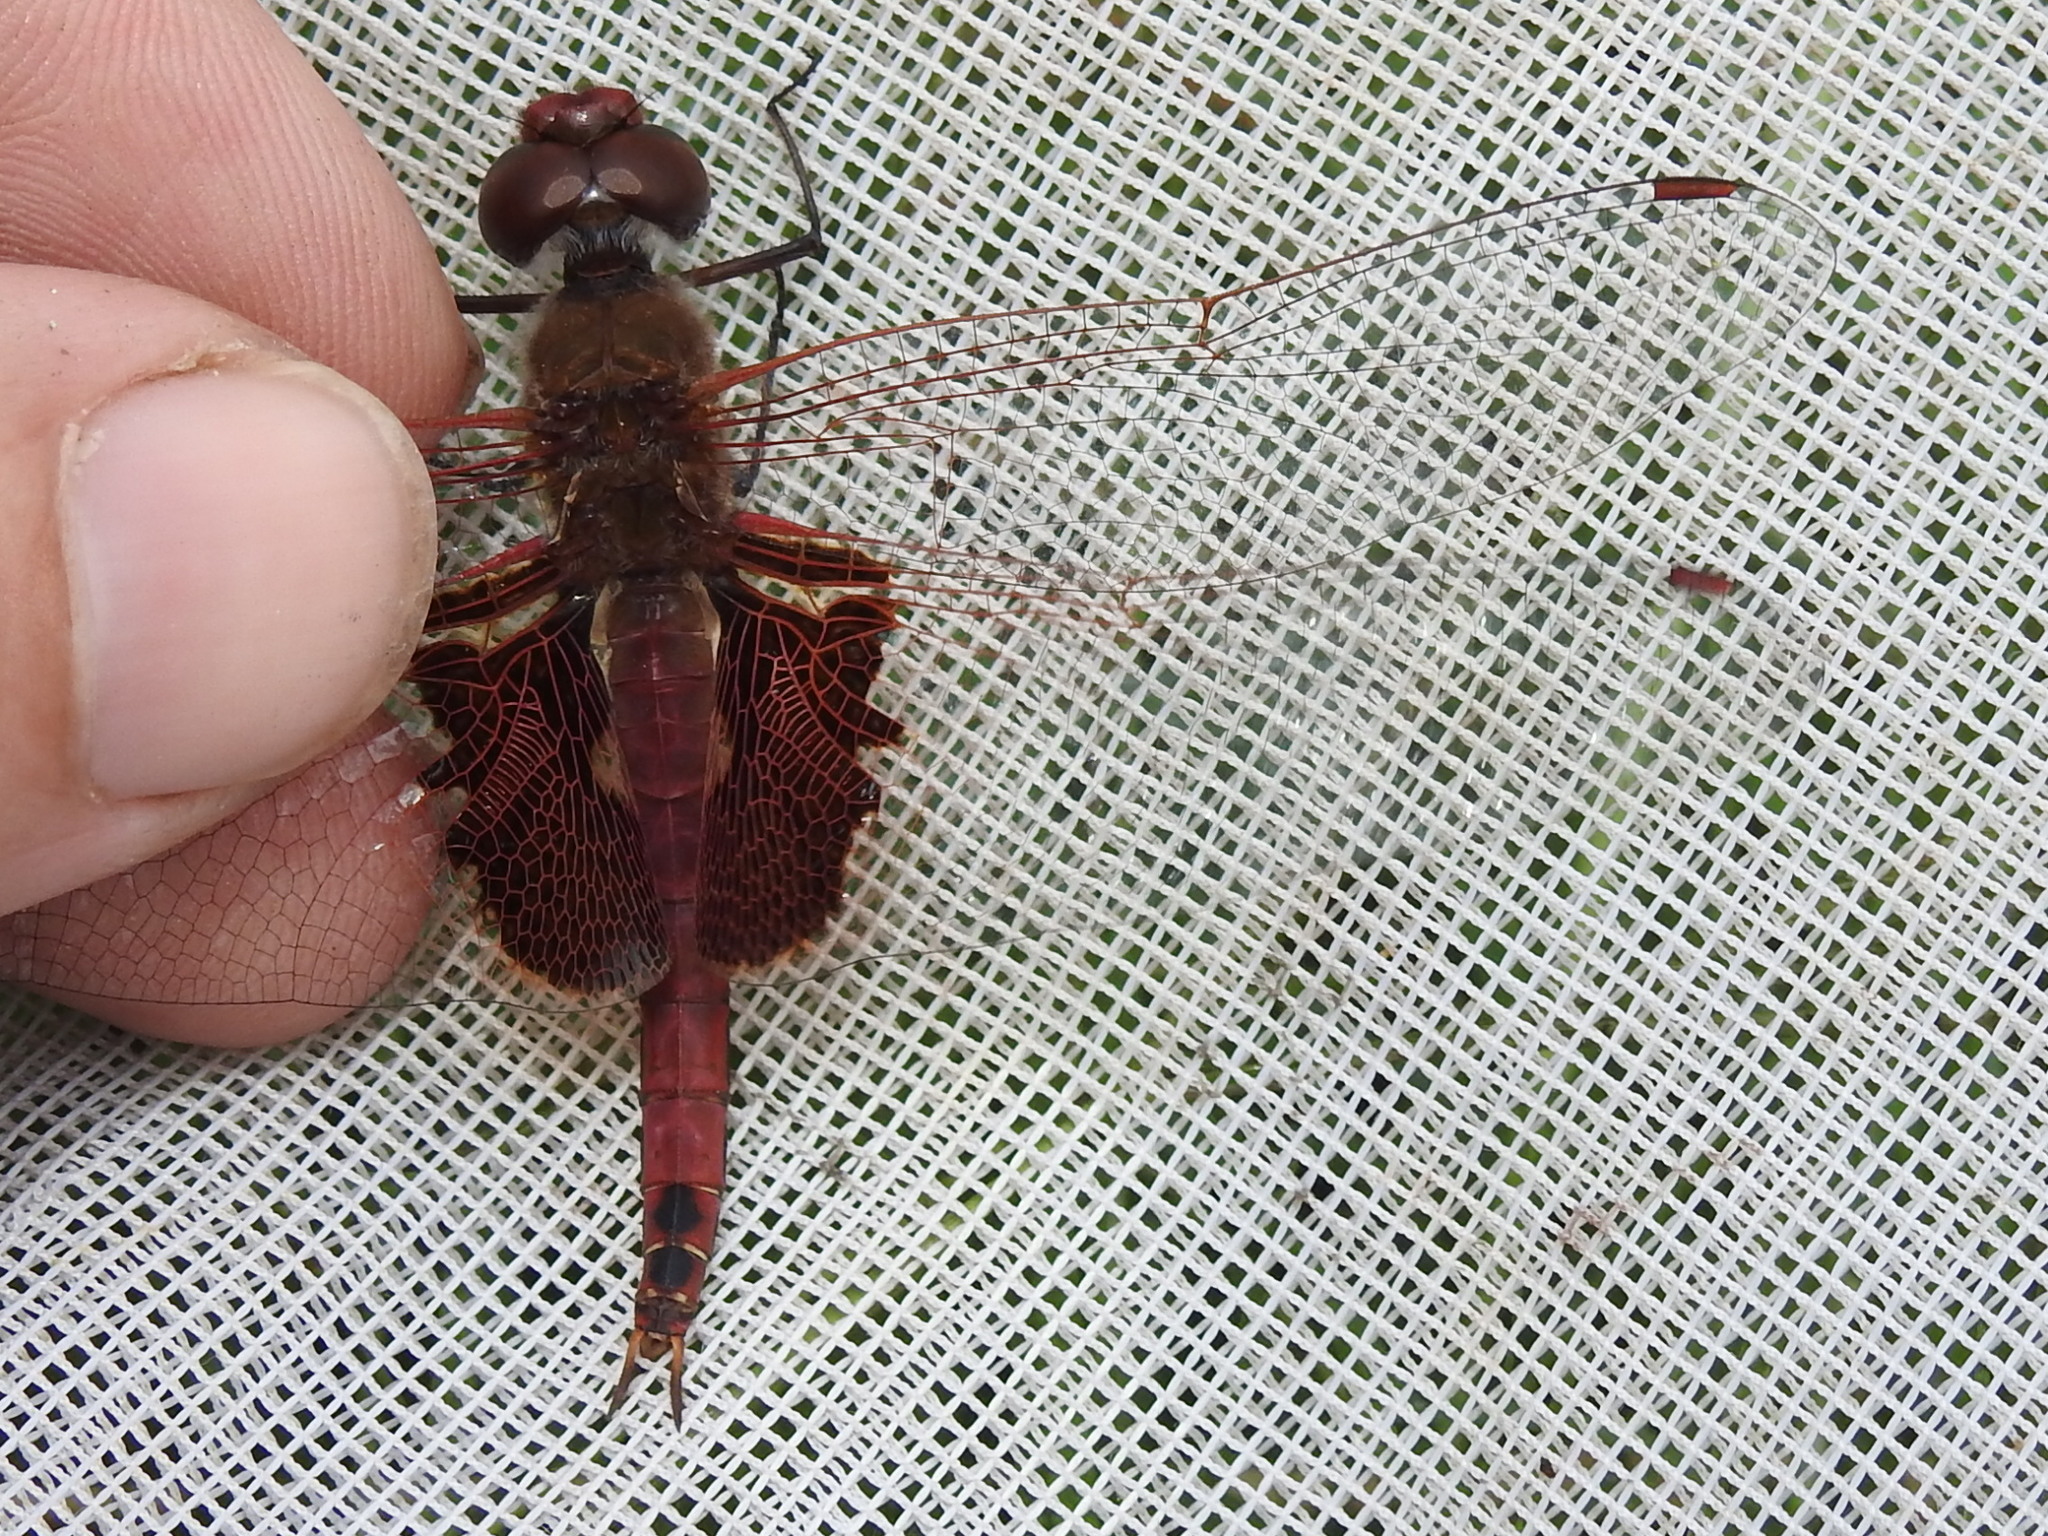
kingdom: Animalia
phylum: Arthropoda
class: Insecta
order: Odonata
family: Libellulidae
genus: Tramea
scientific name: Tramea onusta
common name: Red saddlebags
